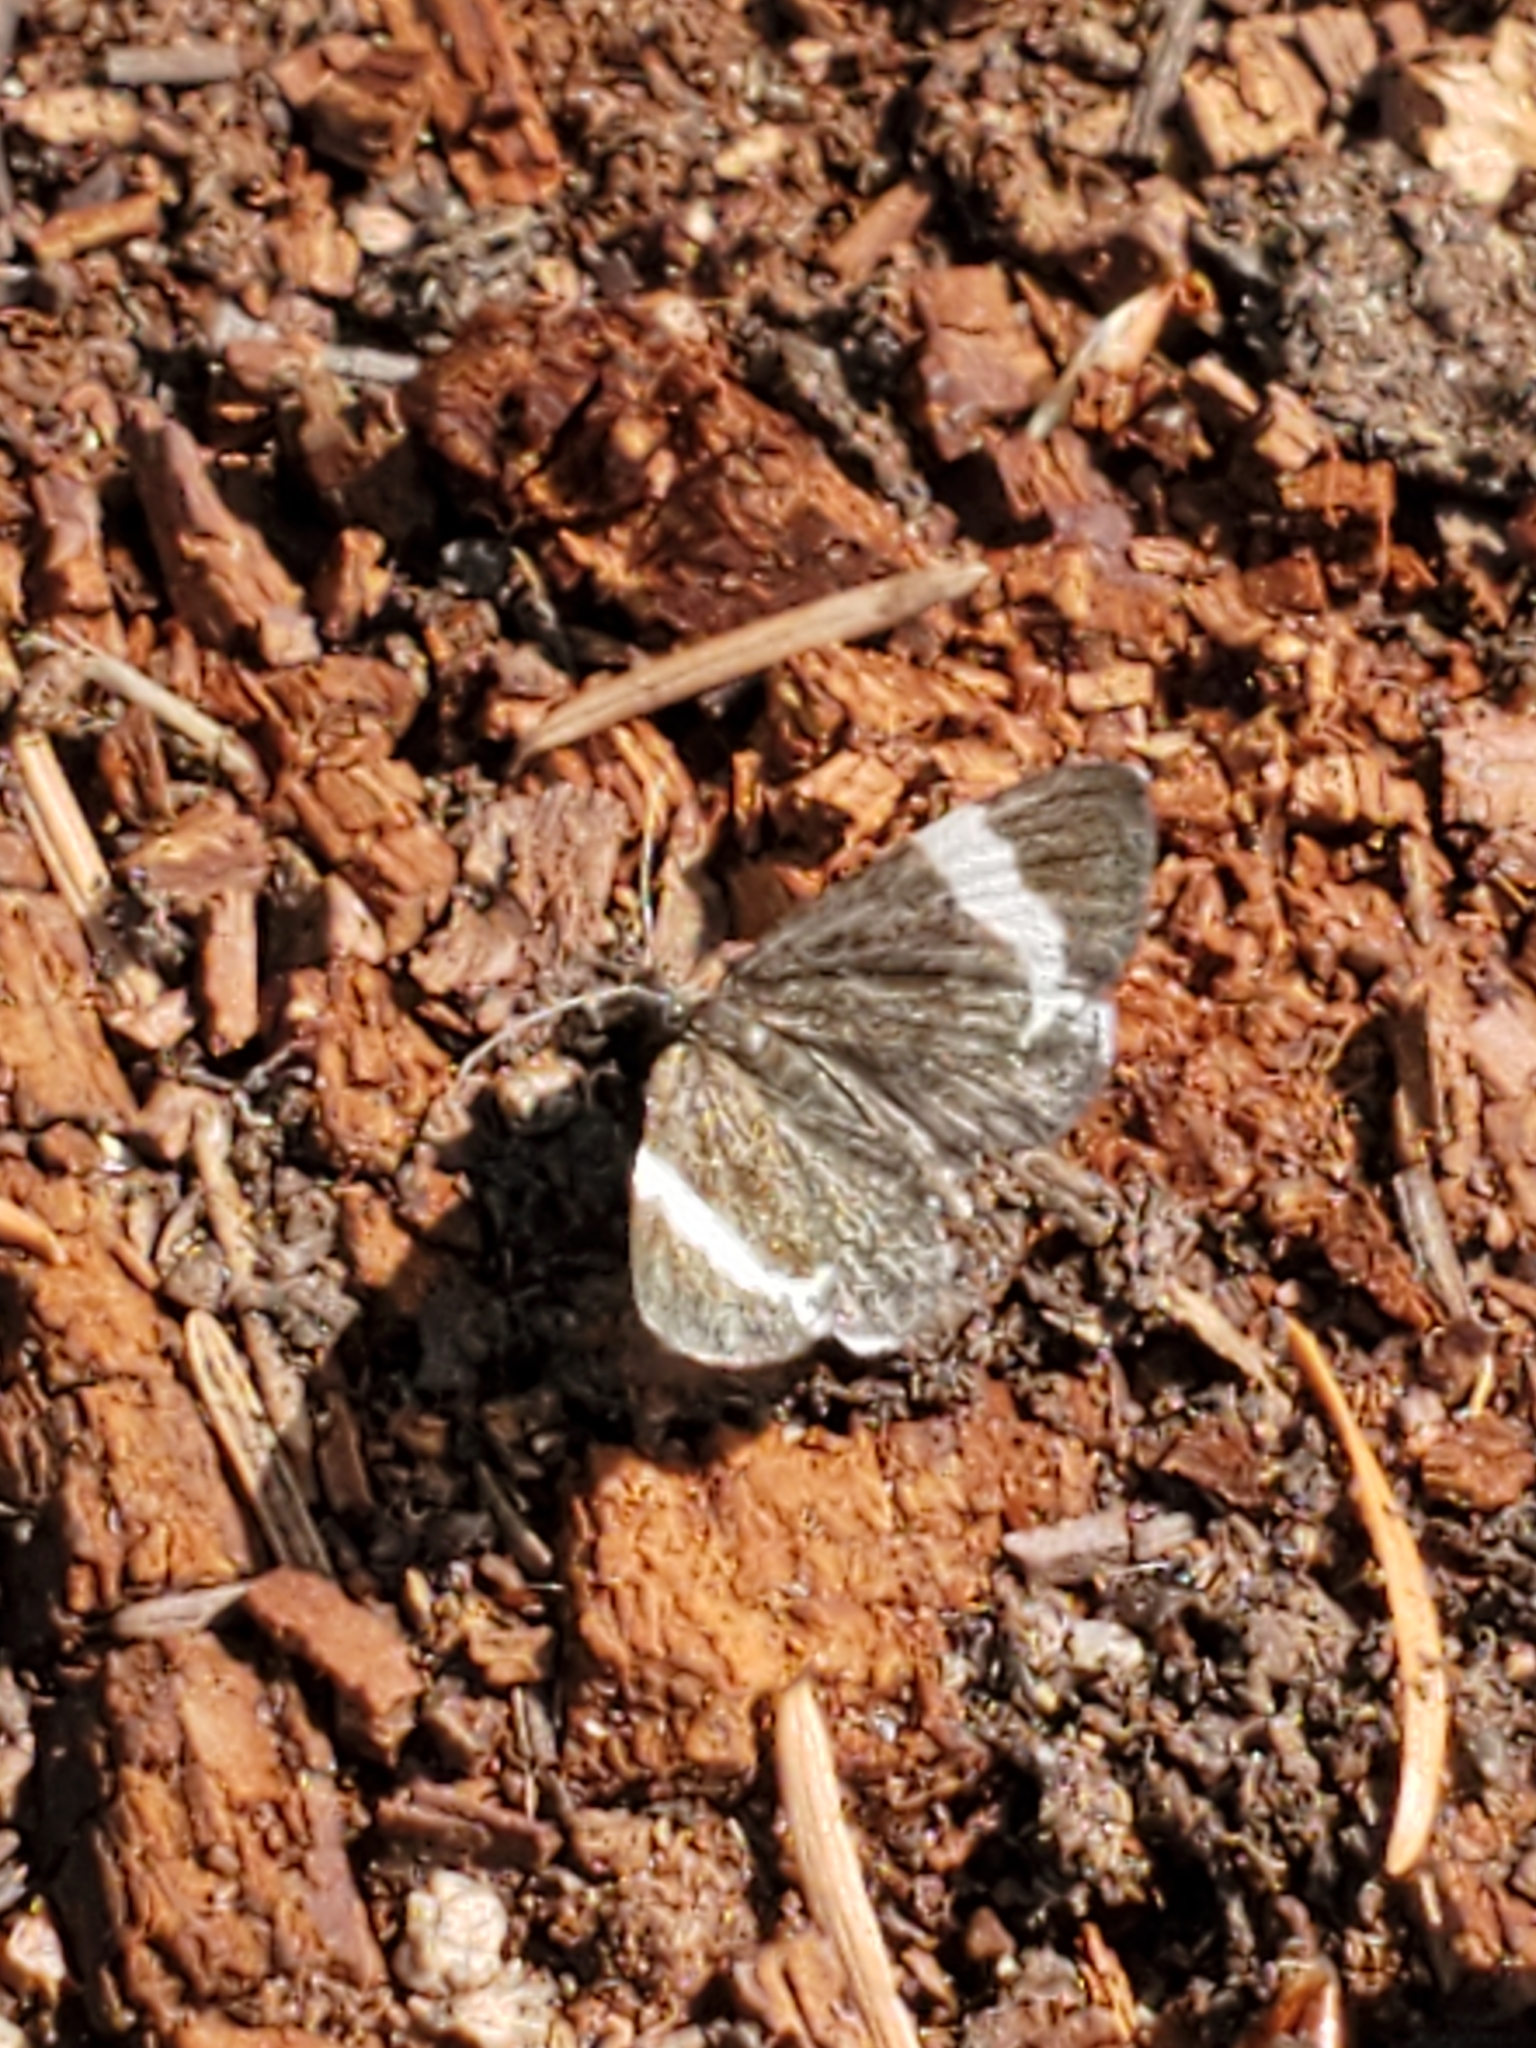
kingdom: Animalia
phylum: Arthropoda
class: Insecta
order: Lepidoptera
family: Geometridae
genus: Trichodezia
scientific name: Trichodezia albovittata
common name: White striped black
